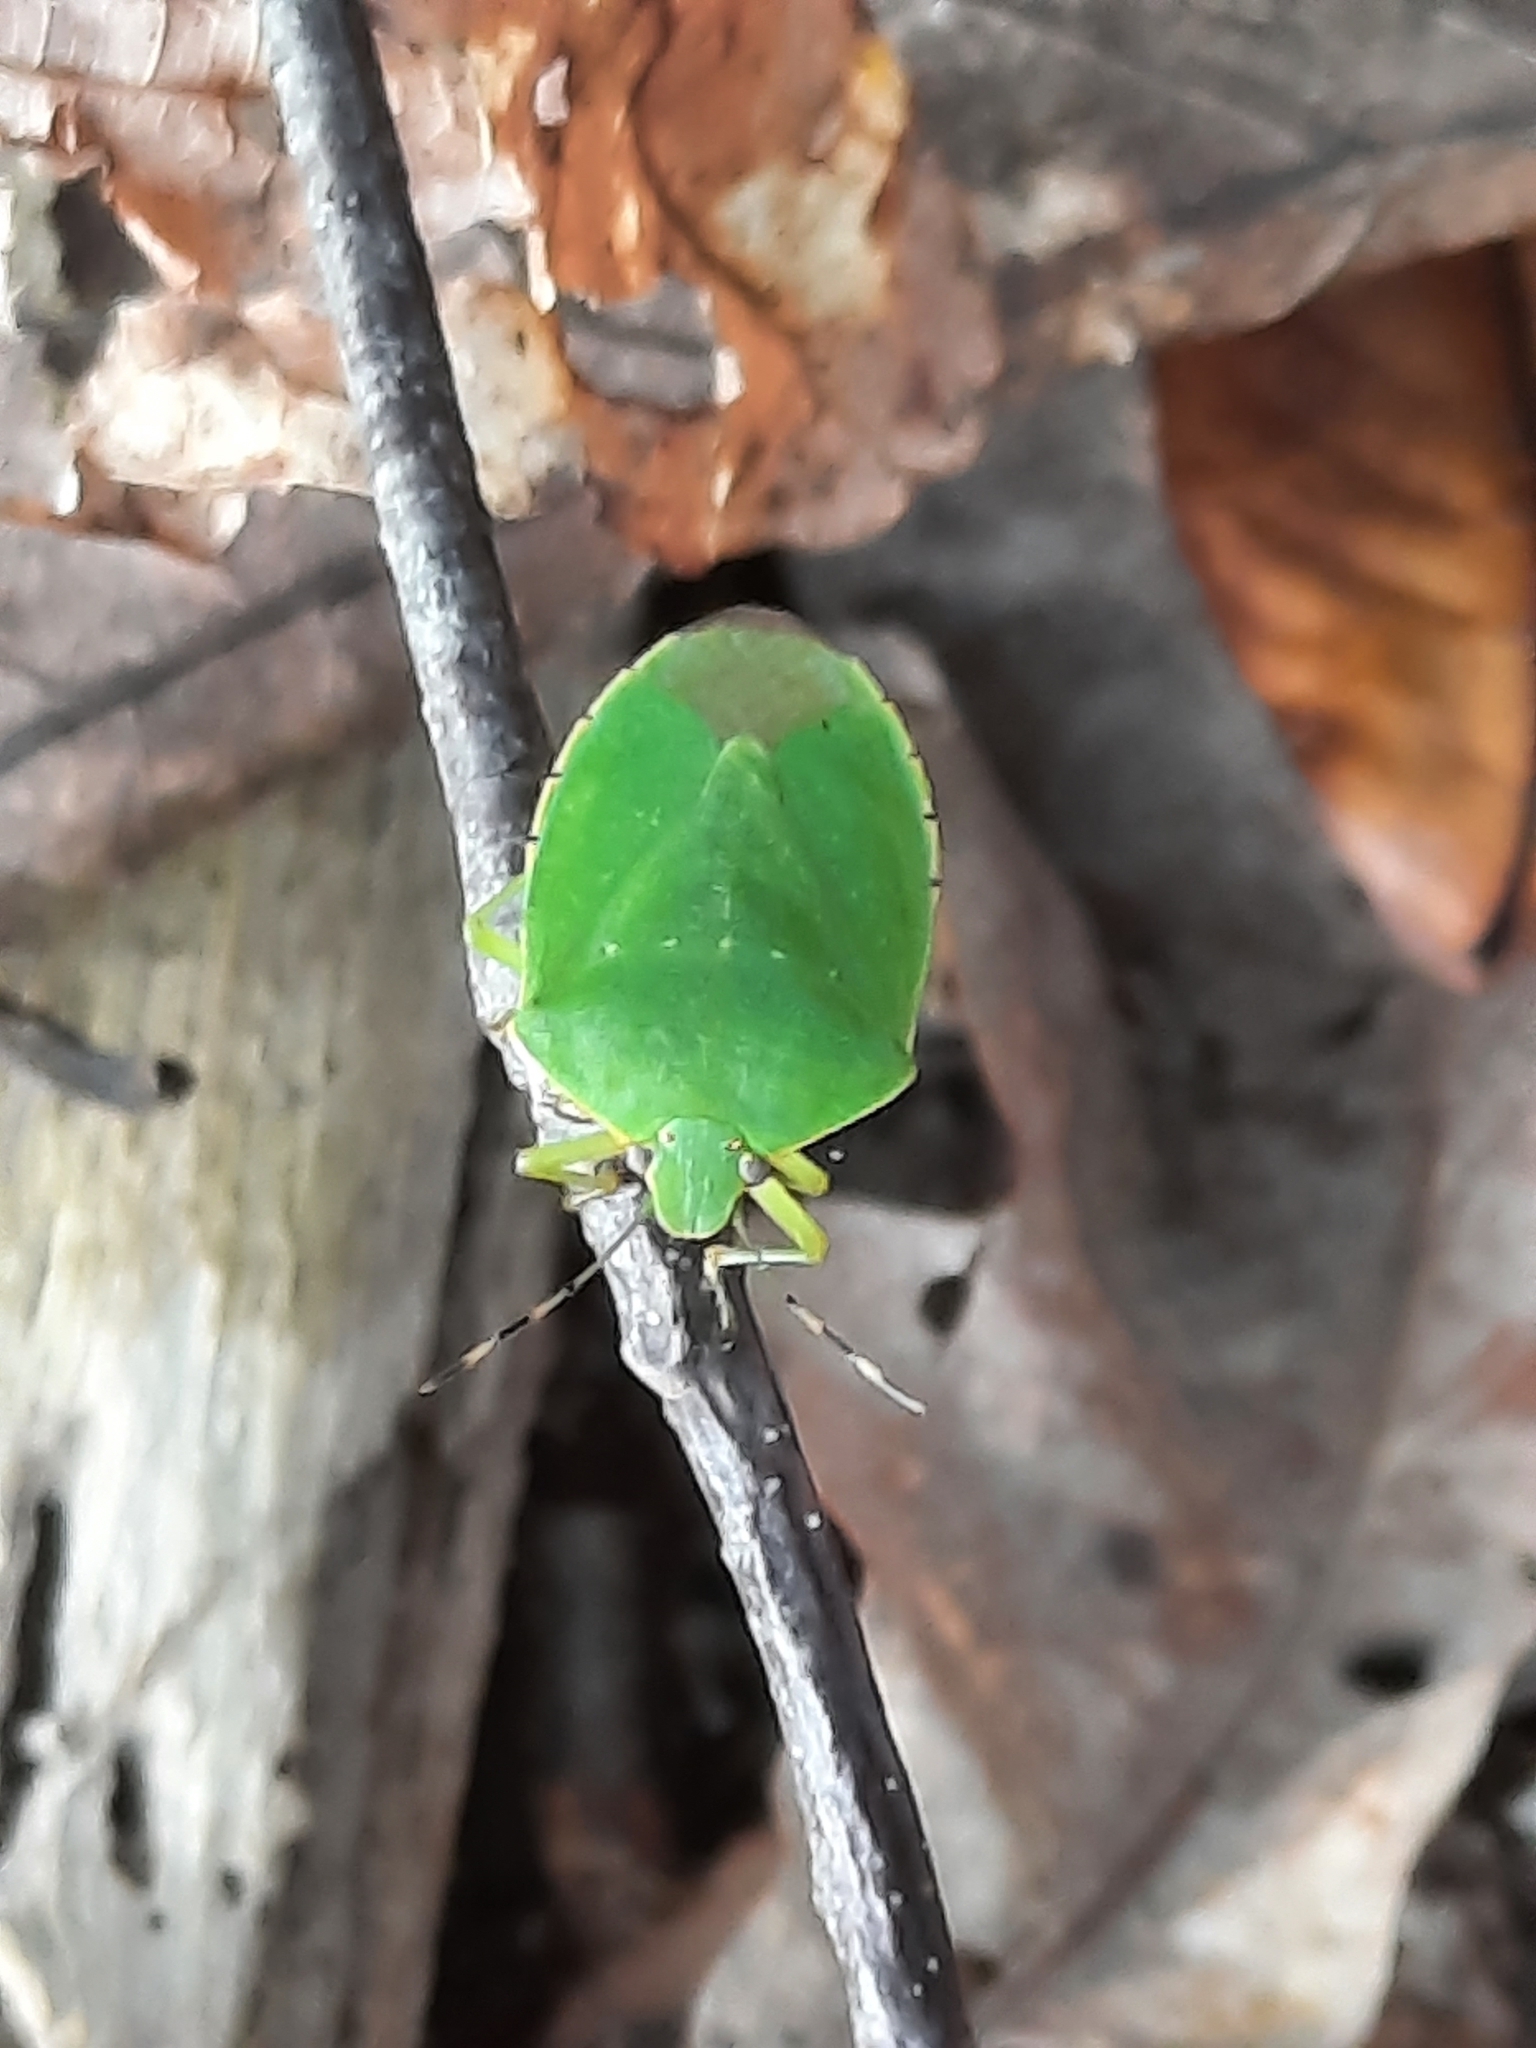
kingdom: Animalia
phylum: Arthropoda
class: Insecta
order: Hemiptera
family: Pentatomidae
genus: Chinavia
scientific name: Chinavia hilaris
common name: Green stink bug
